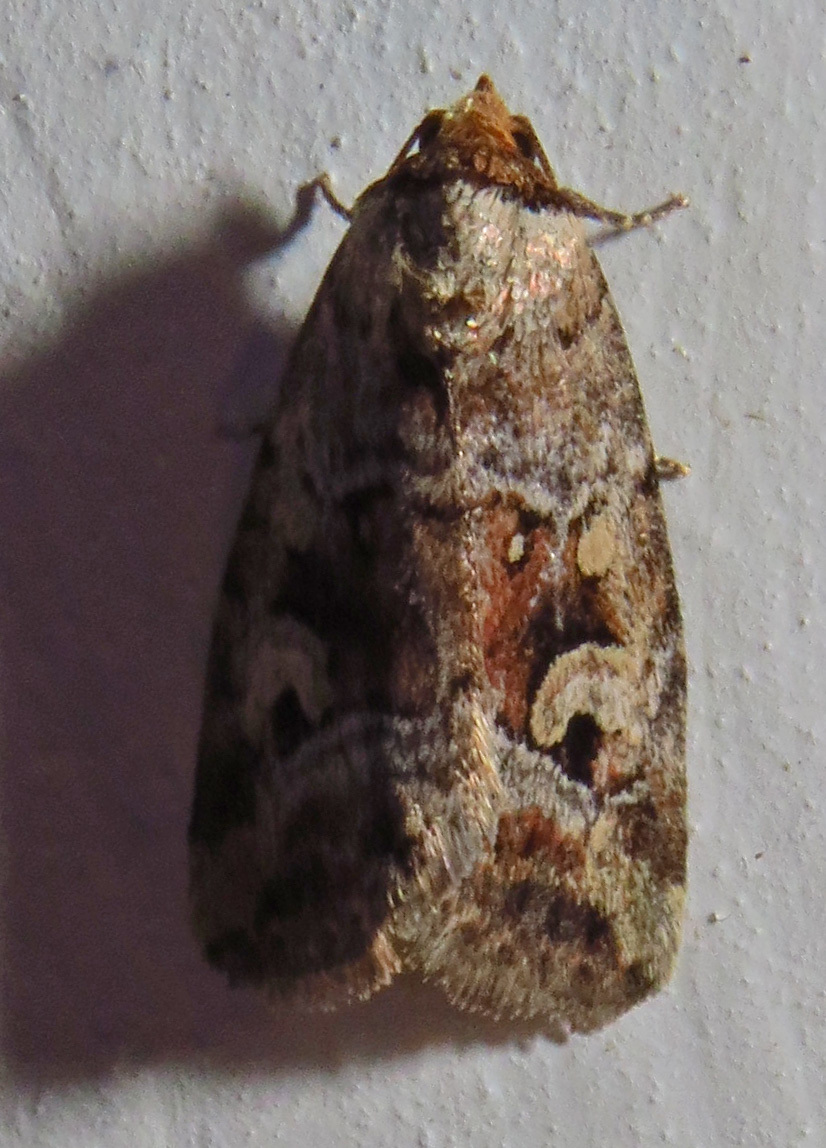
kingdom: Animalia
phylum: Arthropoda
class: Insecta
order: Lepidoptera
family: Noctuidae
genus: Elaphria
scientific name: Elaphria alapallida
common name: Pale-winged midget
